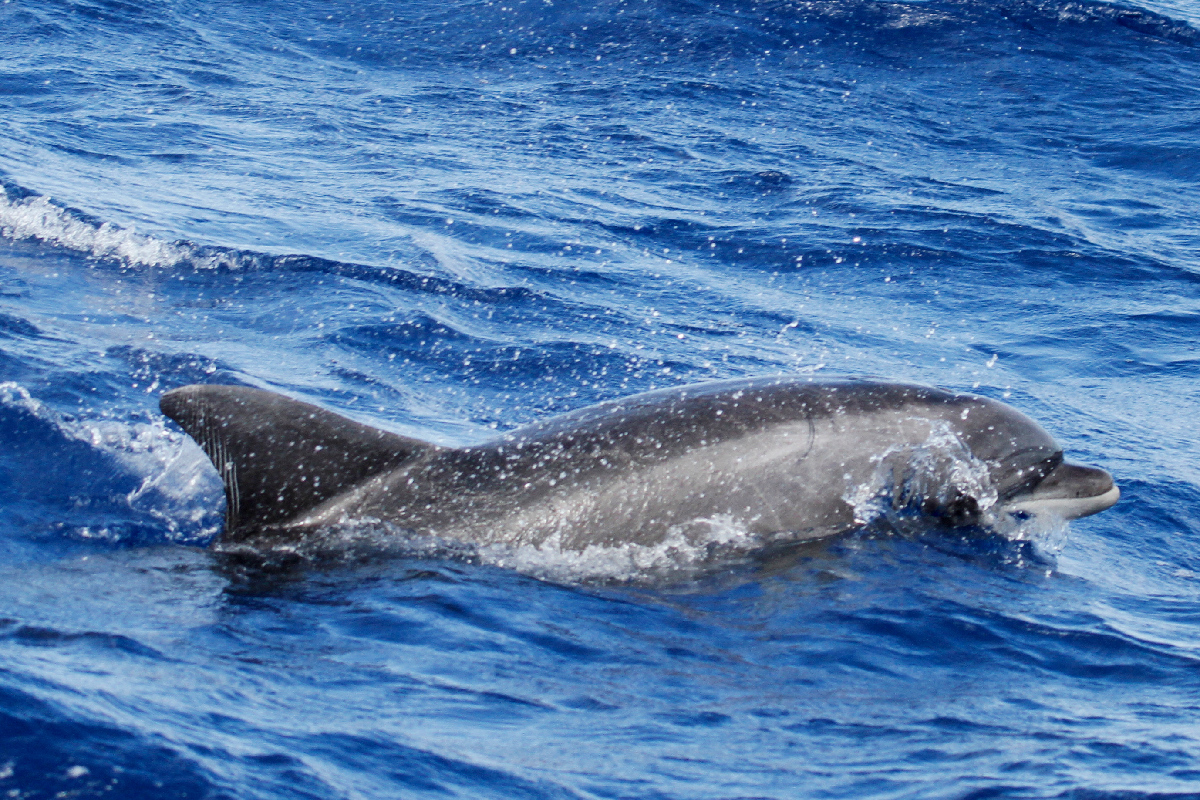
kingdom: Animalia
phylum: Chordata
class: Mammalia
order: Cetacea
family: Delphinidae
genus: Tursiops
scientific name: Tursiops truncatus
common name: Bottlenose dolphin
